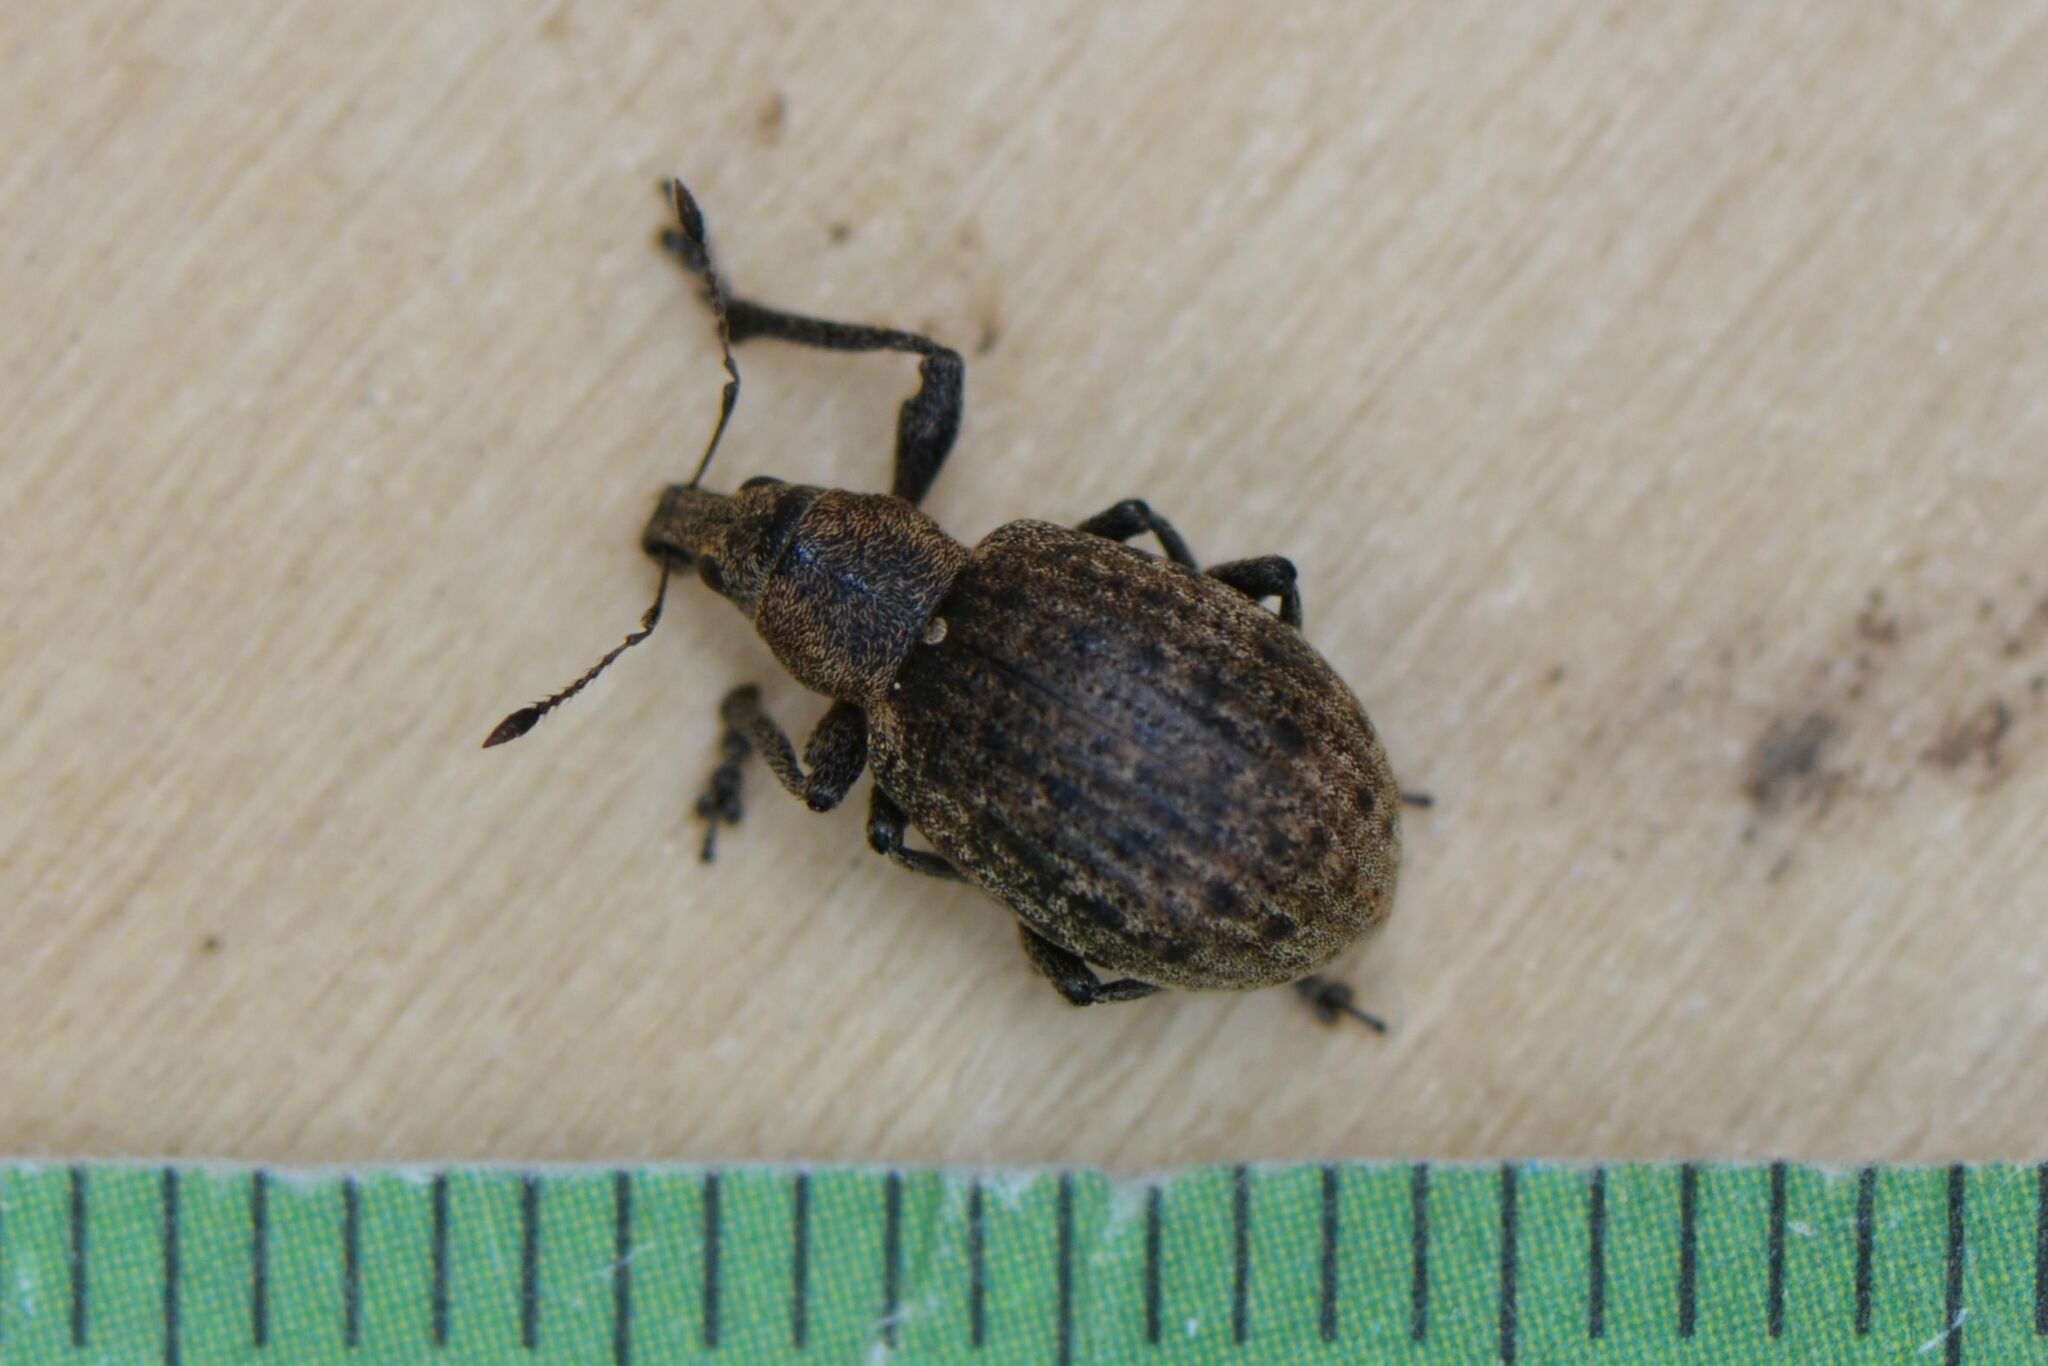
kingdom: Animalia
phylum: Arthropoda
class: Insecta
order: Coleoptera
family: Curculionidae
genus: Liophloeus
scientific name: Liophloeus tessulatus
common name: Weevil
